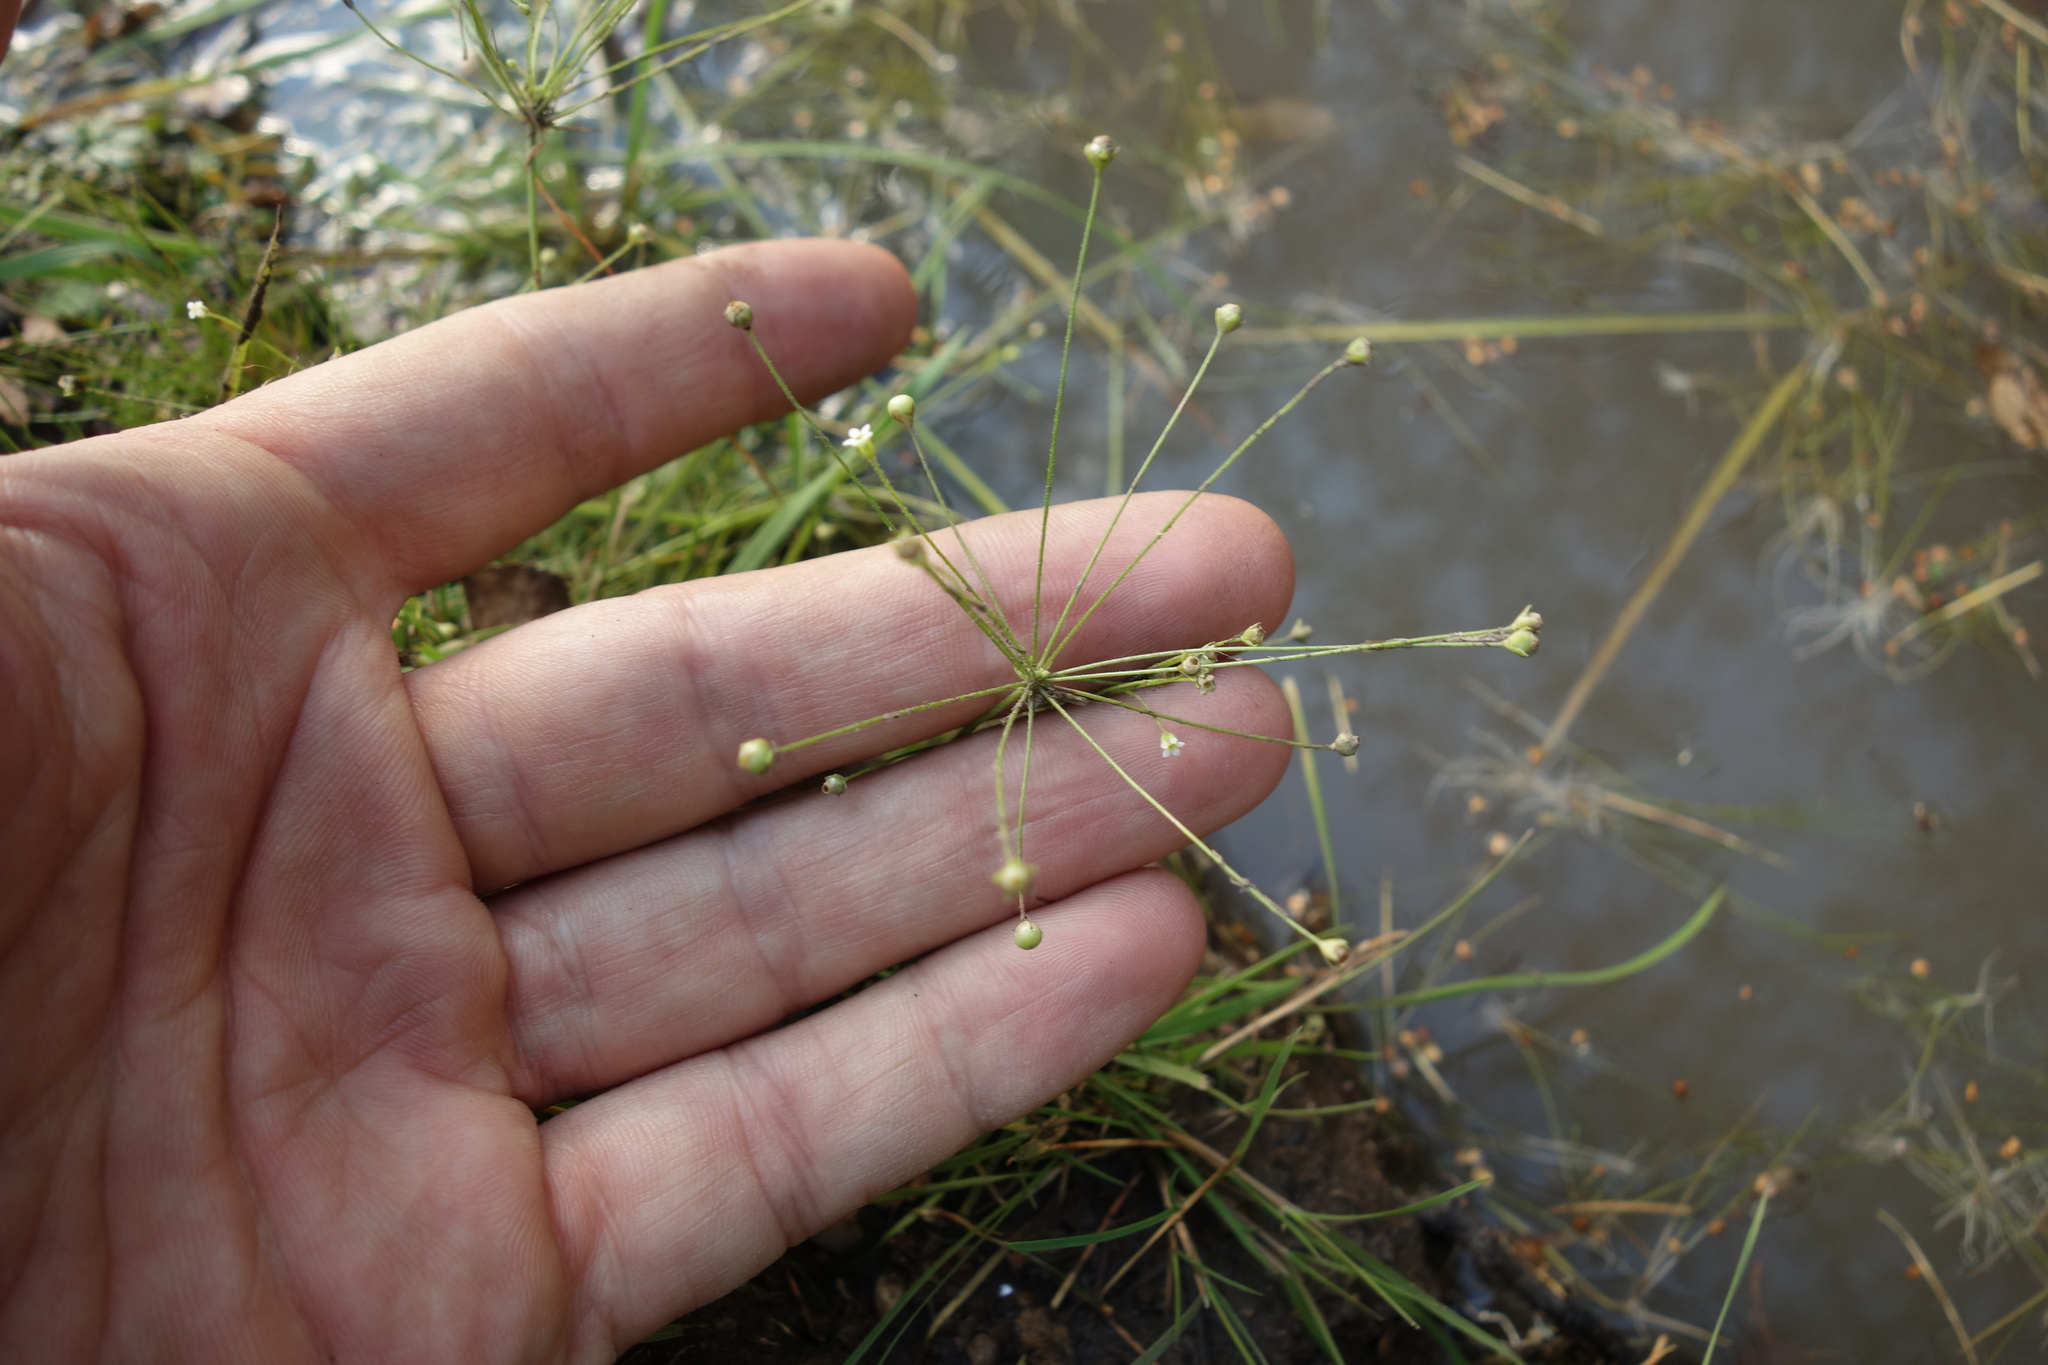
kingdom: Plantae
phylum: Tracheophyta
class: Magnoliopsida
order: Ericales
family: Primulaceae
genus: Androsace
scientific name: Androsace filiformis
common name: Filiform rock jasmine
